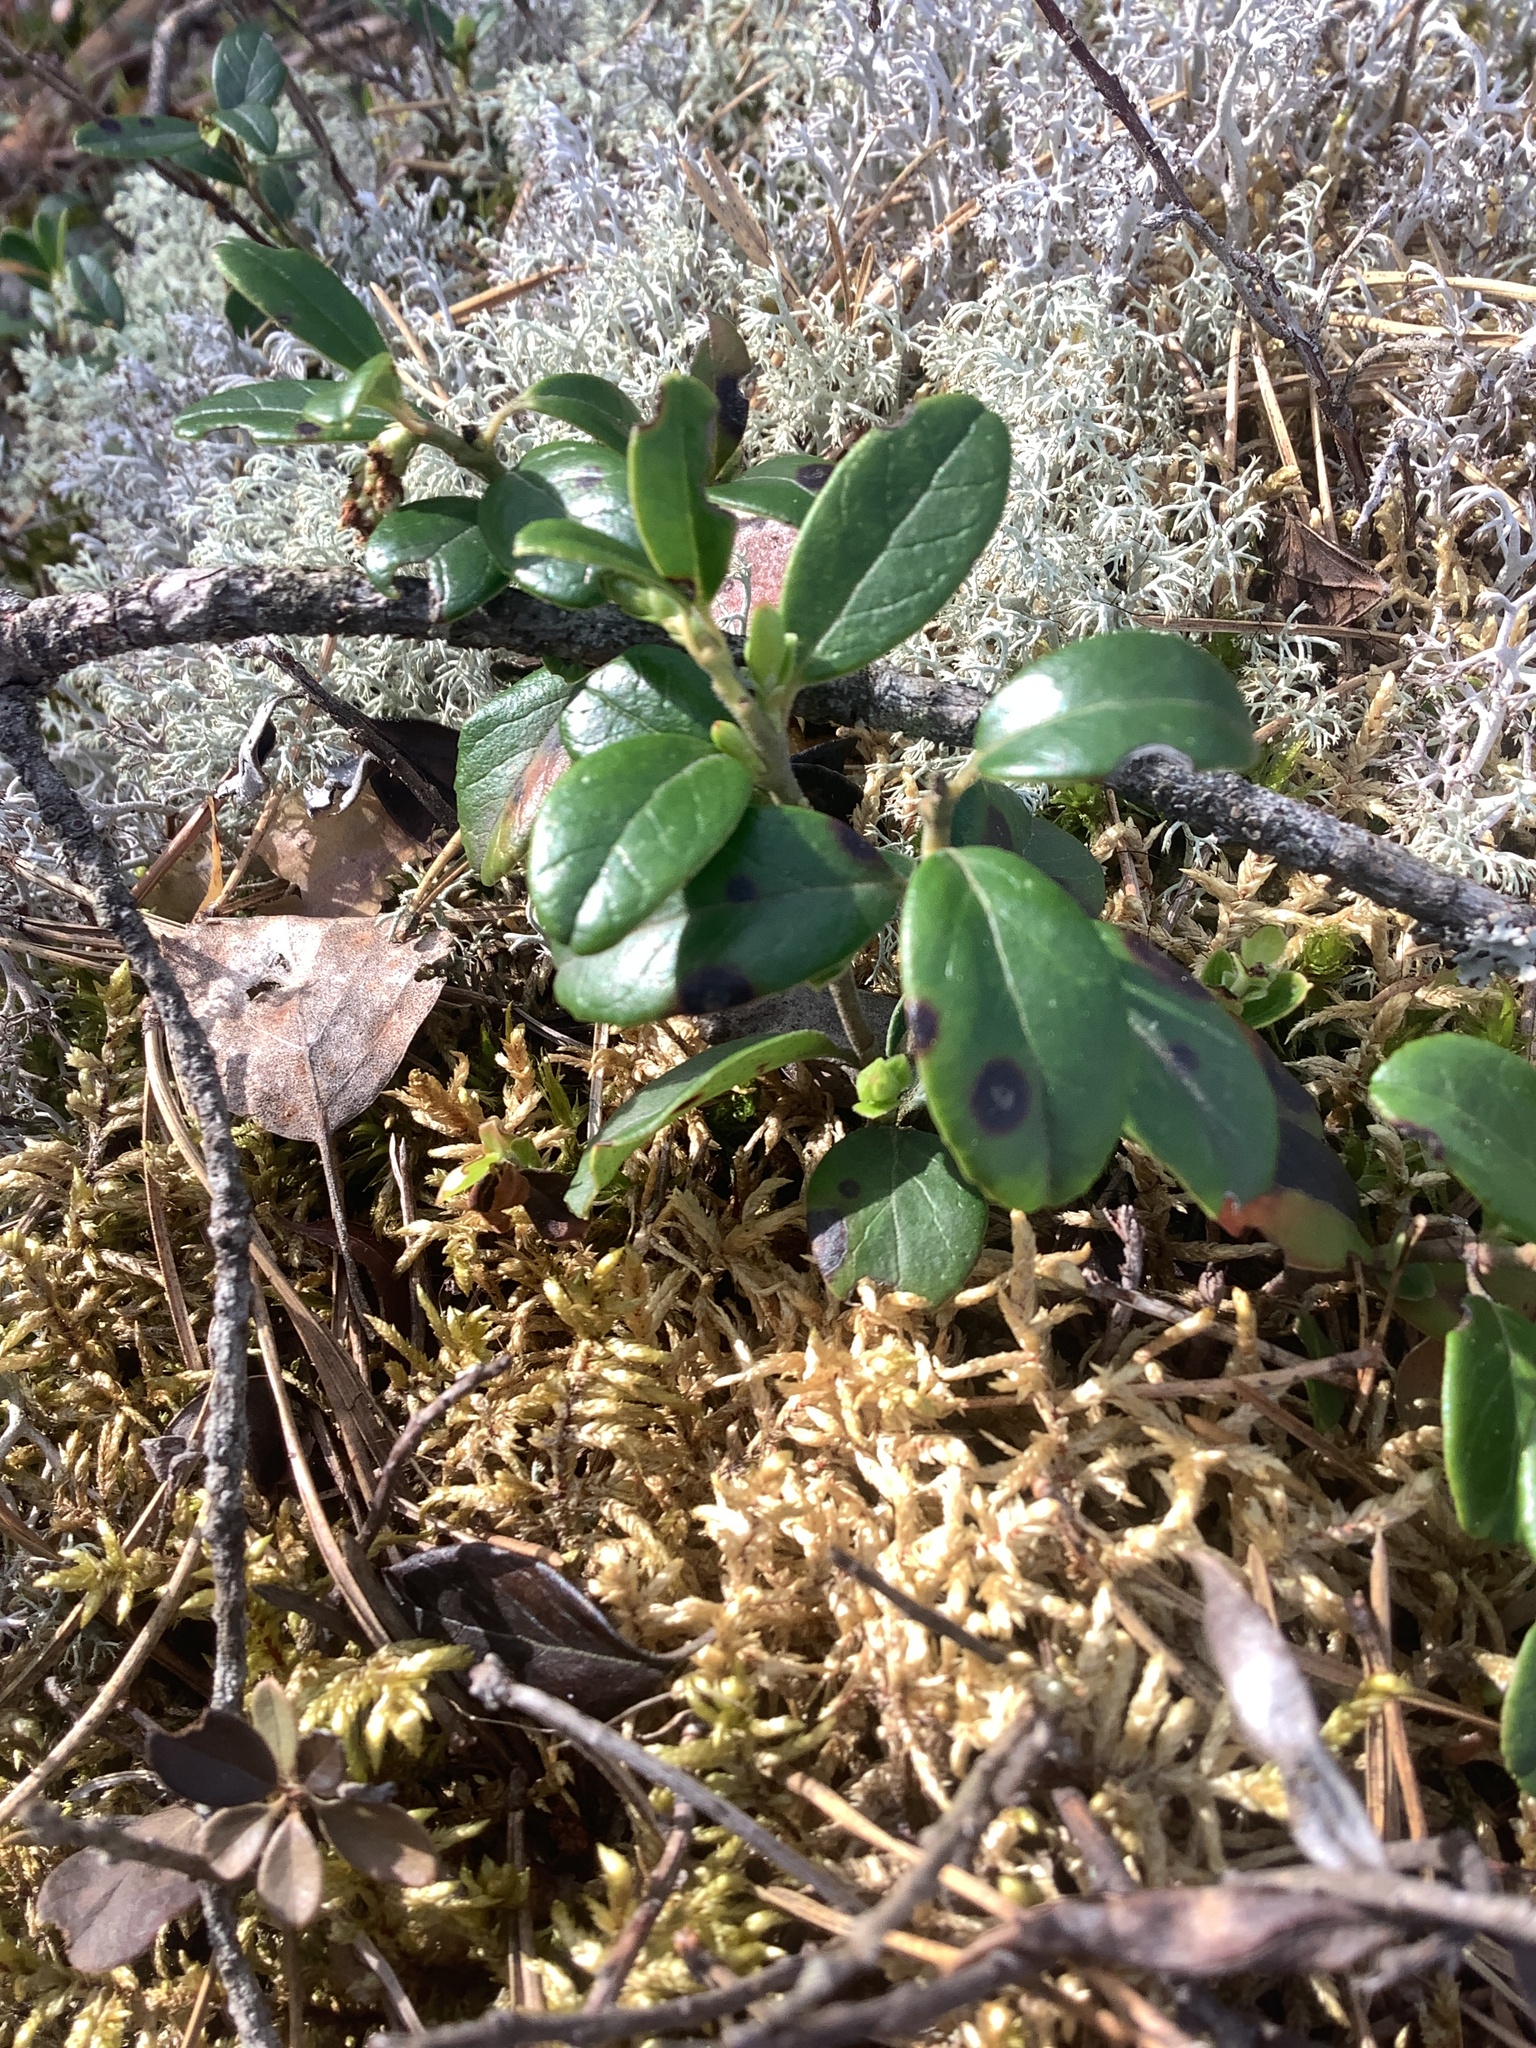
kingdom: Plantae
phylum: Tracheophyta
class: Magnoliopsida
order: Ericales
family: Ericaceae
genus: Vaccinium
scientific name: Vaccinium vitis-idaea
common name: Cowberry
